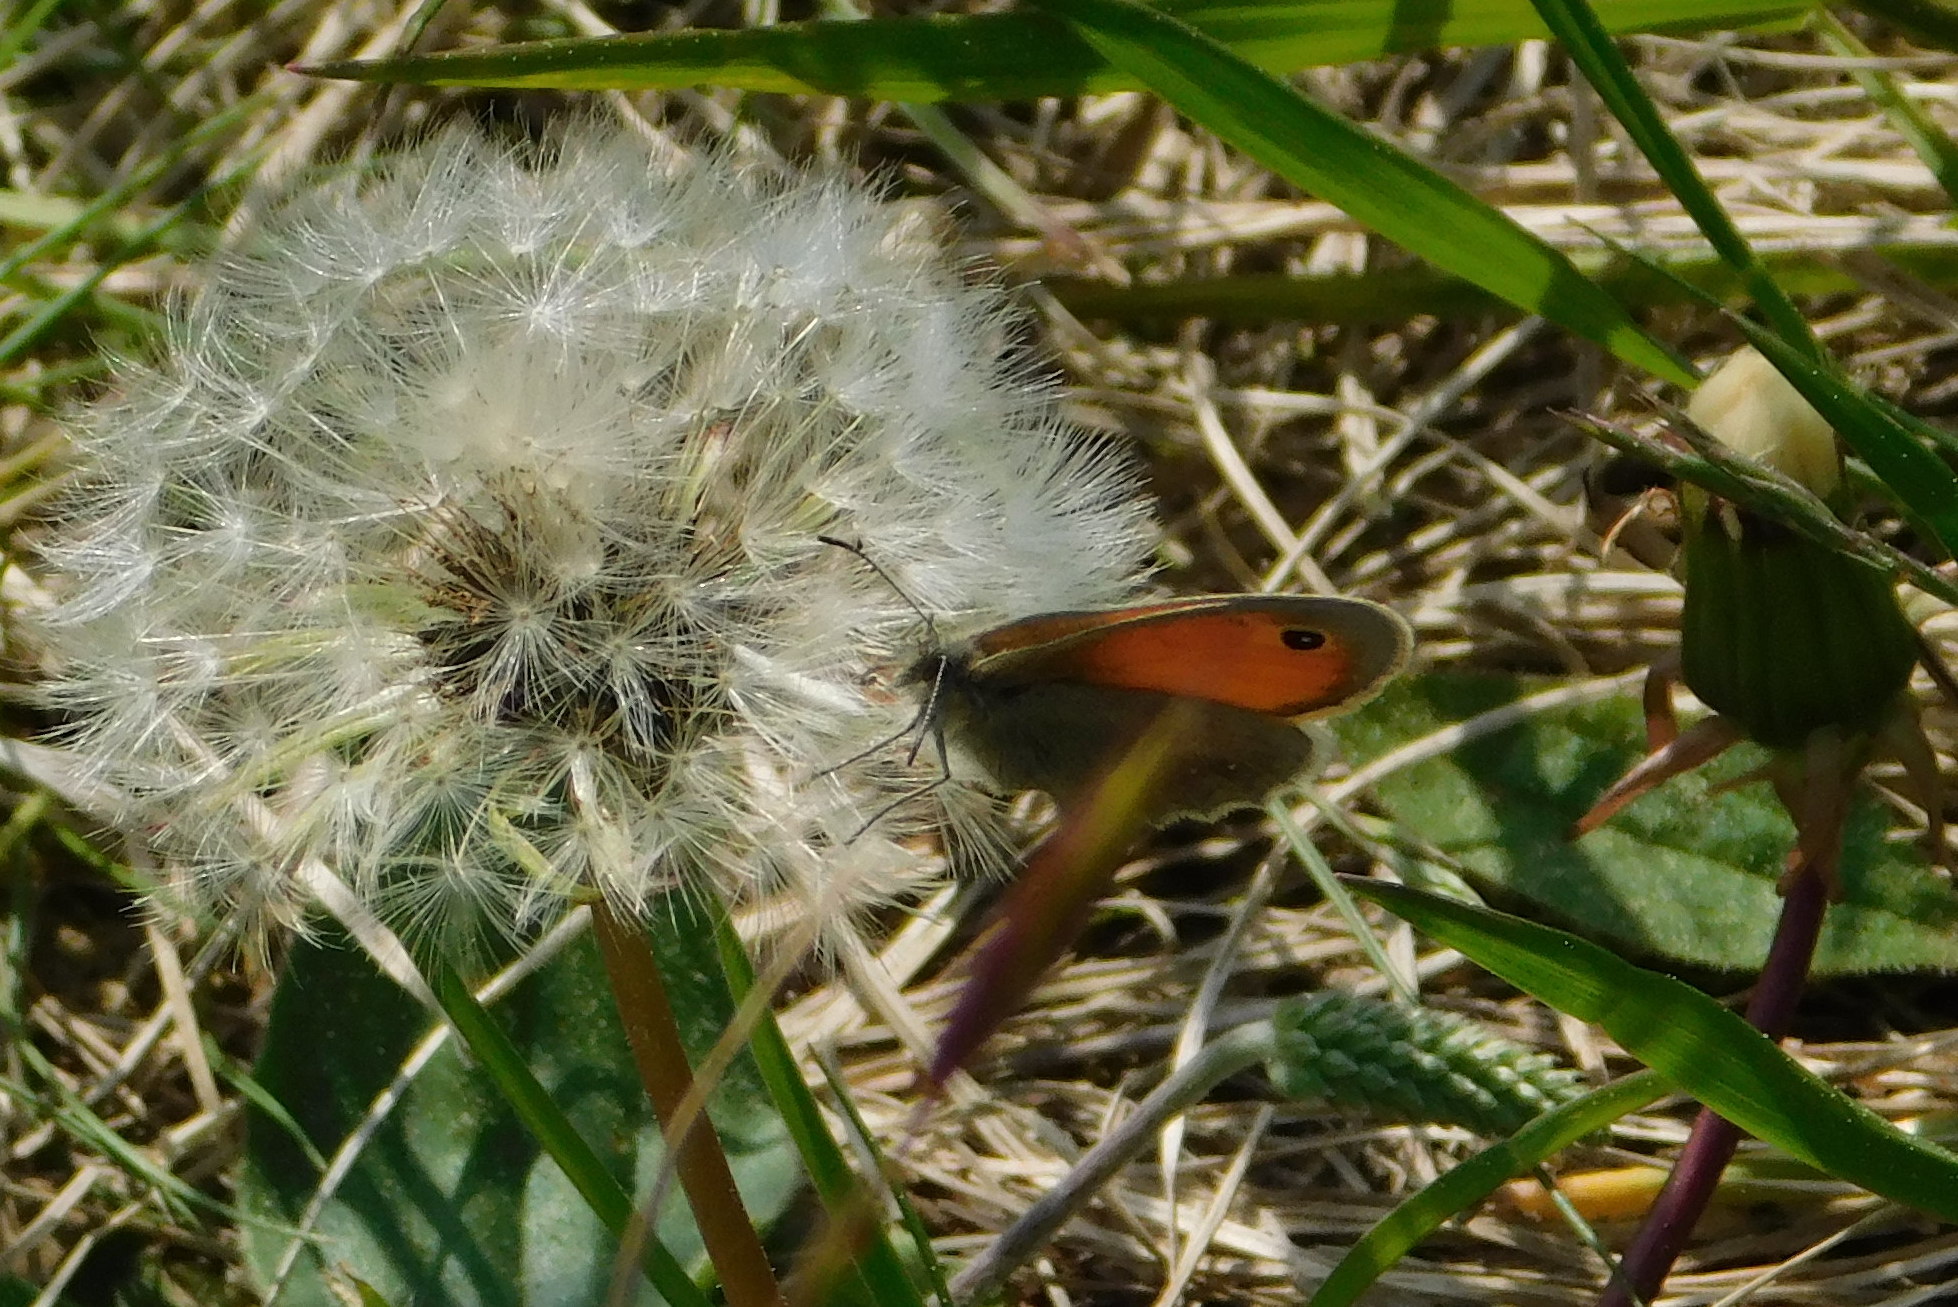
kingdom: Animalia
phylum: Arthropoda
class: Insecta
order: Lepidoptera
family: Nymphalidae
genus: Coenonympha
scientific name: Coenonympha pamphilus
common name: Small heath
